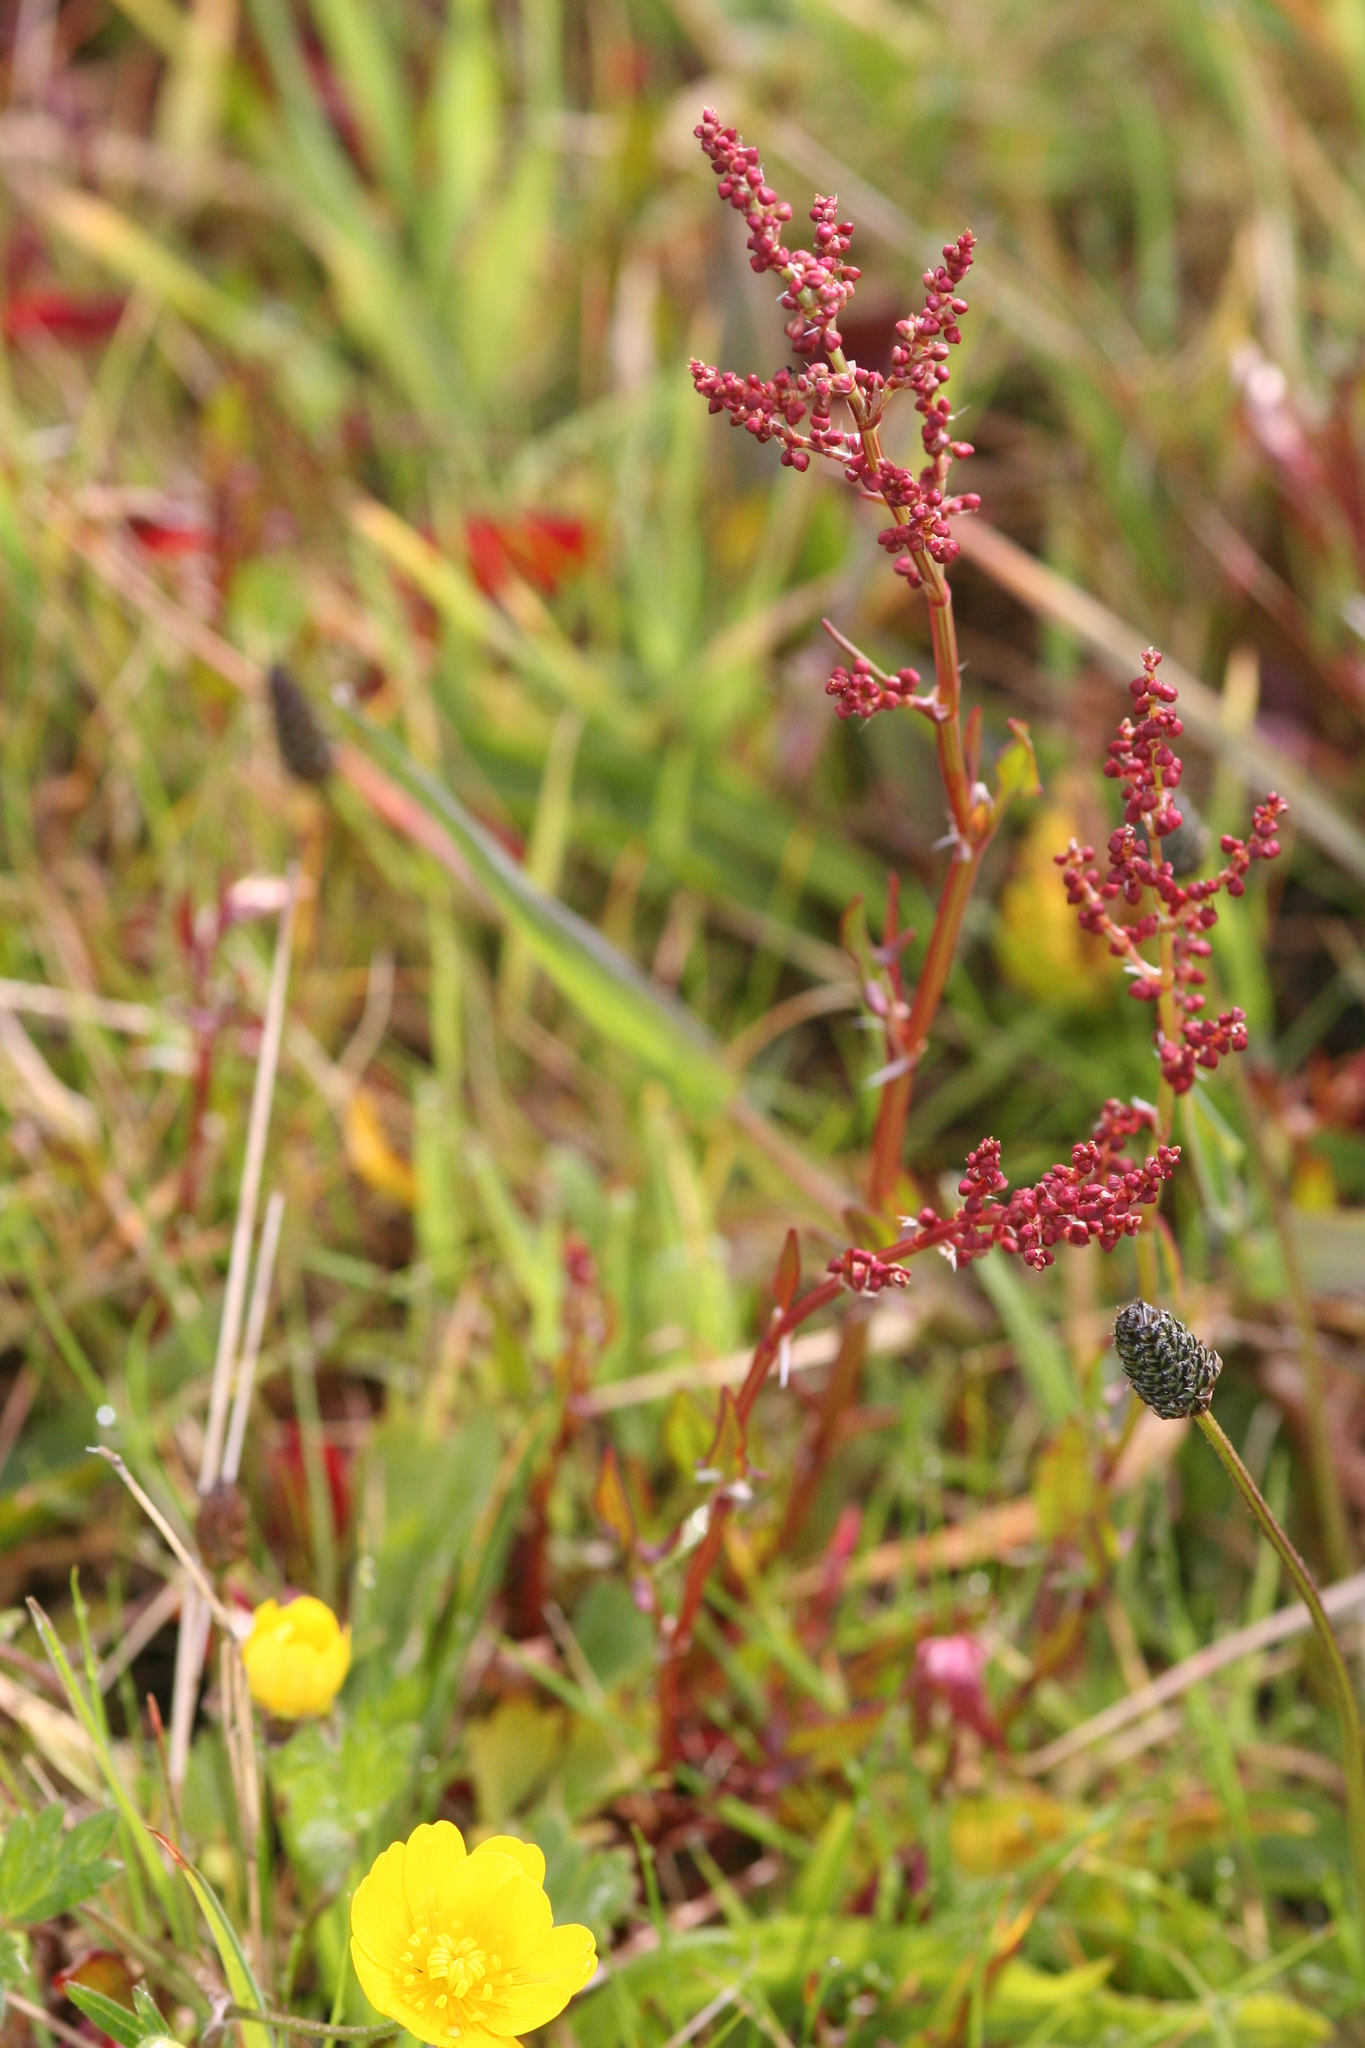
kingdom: Plantae
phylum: Tracheophyta
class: Magnoliopsida
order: Caryophyllales
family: Polygonaceae
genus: Rumex
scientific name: Rumex acetosella
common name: Common sheep sorrel
